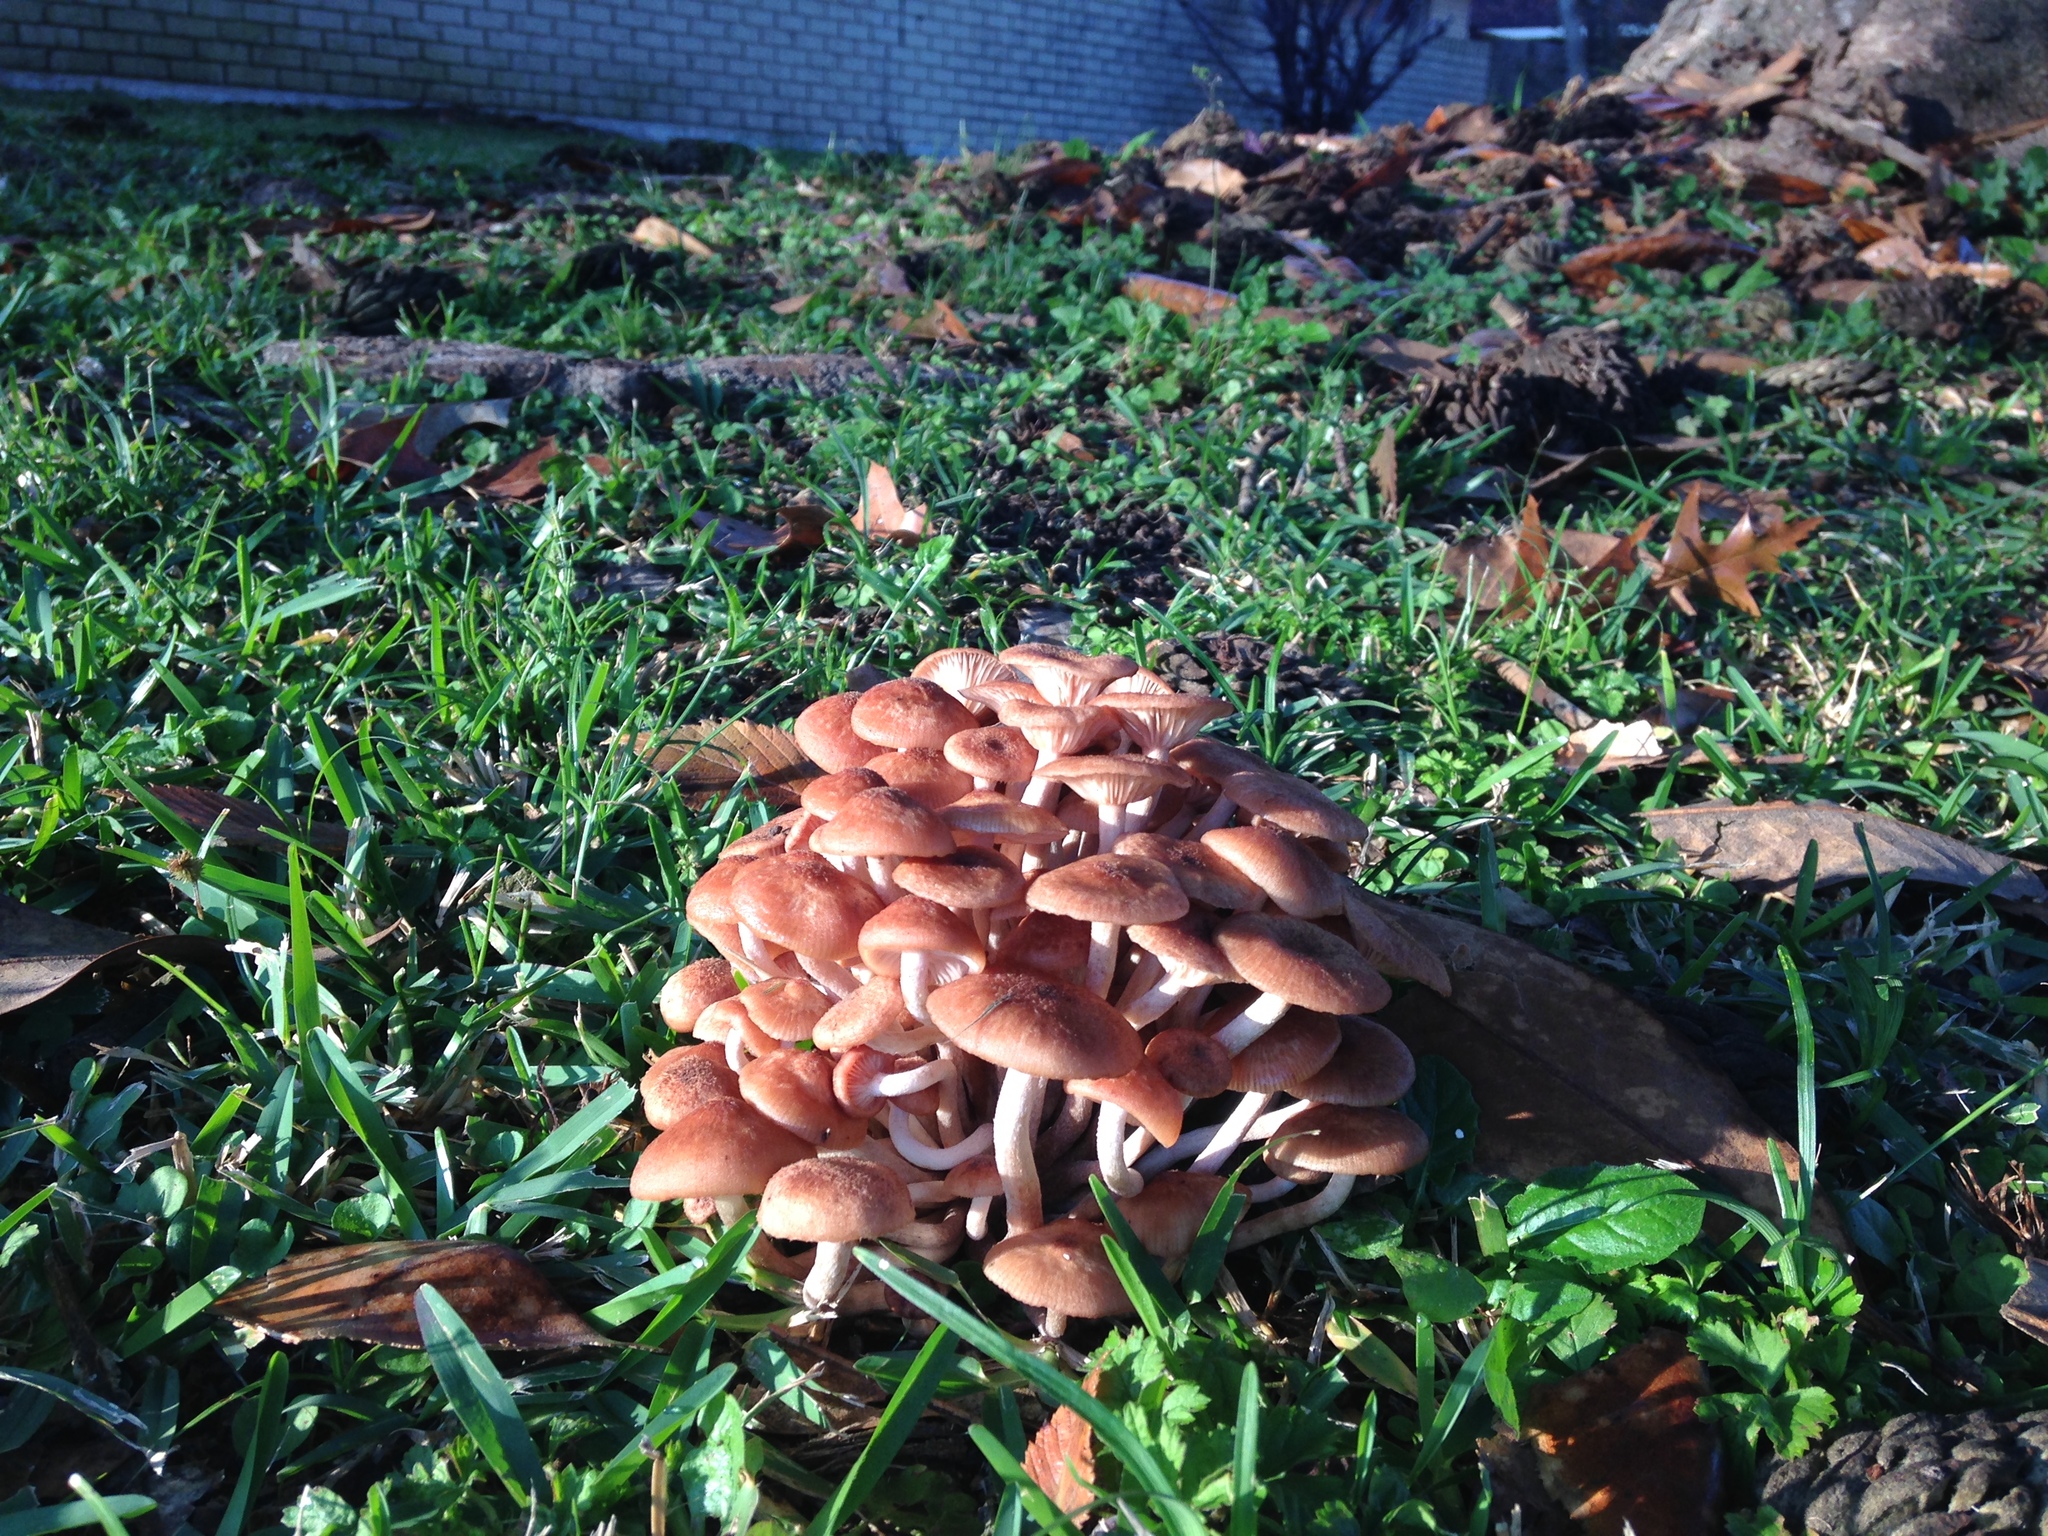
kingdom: Fungi
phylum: Basidiomycota
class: Agaricomycetes
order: Agaricales
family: Physalacriaceae
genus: Desarmillaria
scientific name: Desarmillaria caespitosa
